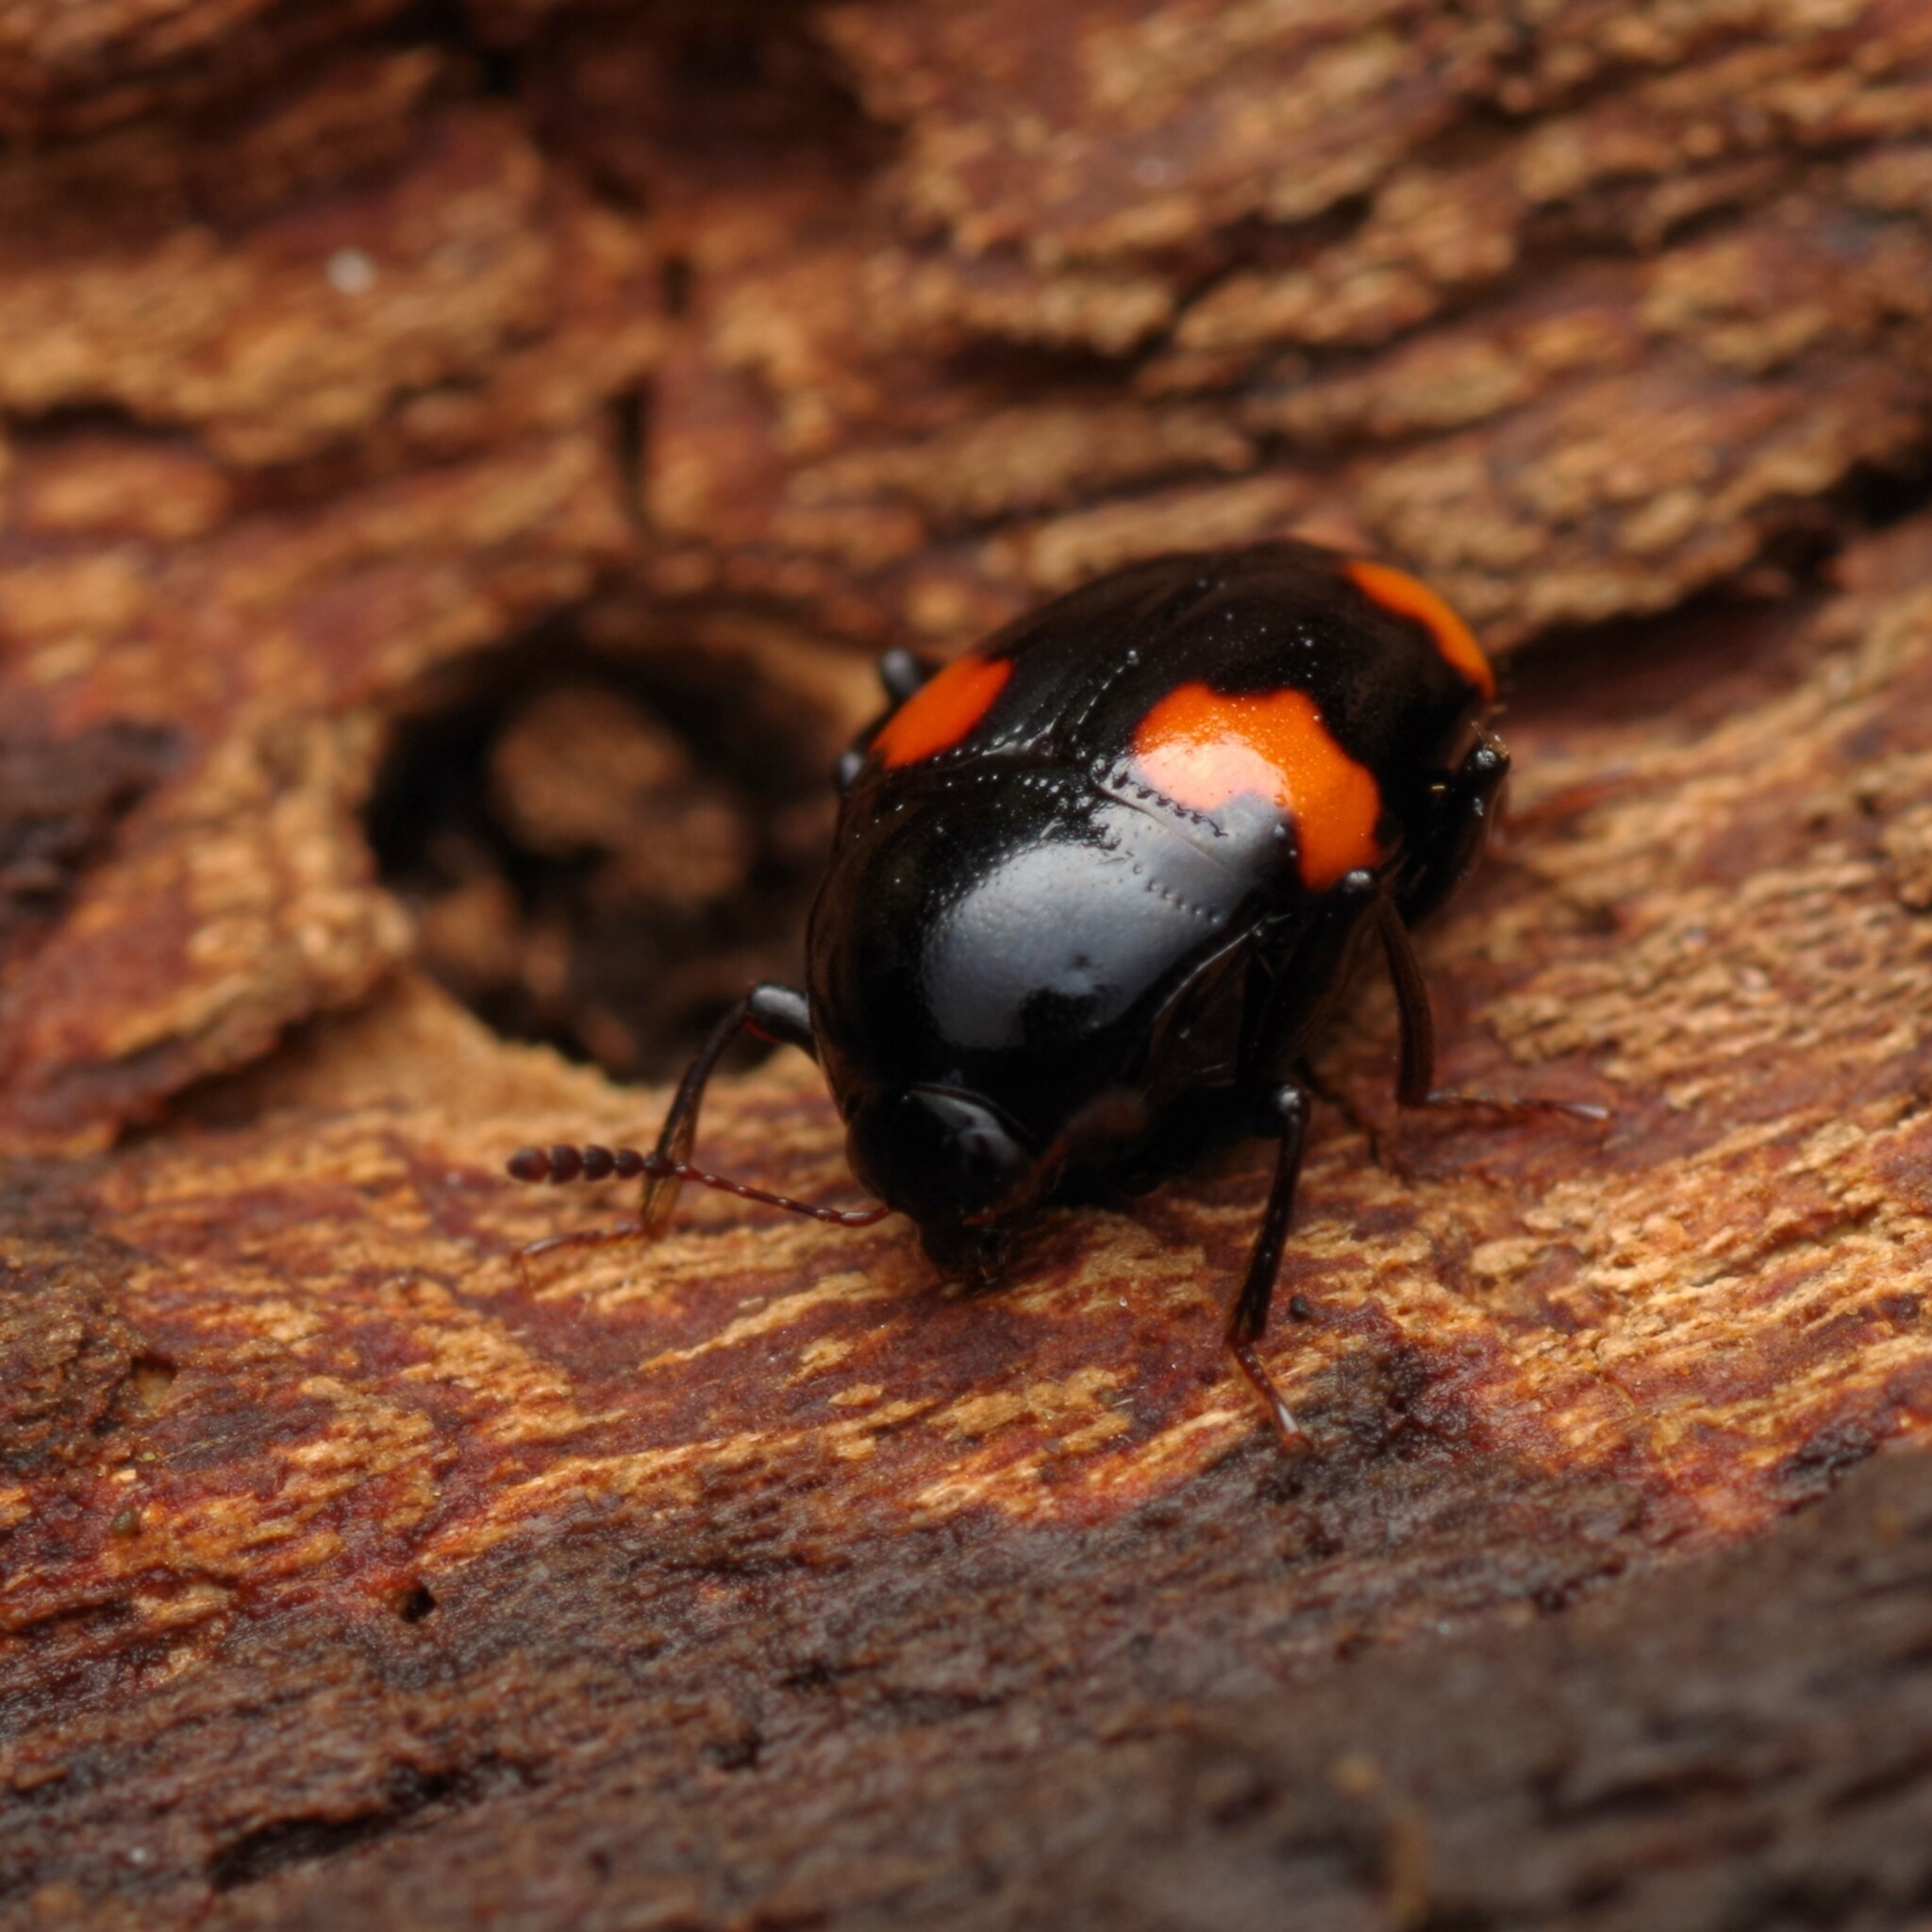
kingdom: Animalia
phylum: Arthropoda
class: Insecta
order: Coleoptera
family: Staphylinidae
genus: Scaphidium
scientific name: Scaphidium quadrimaculatum
